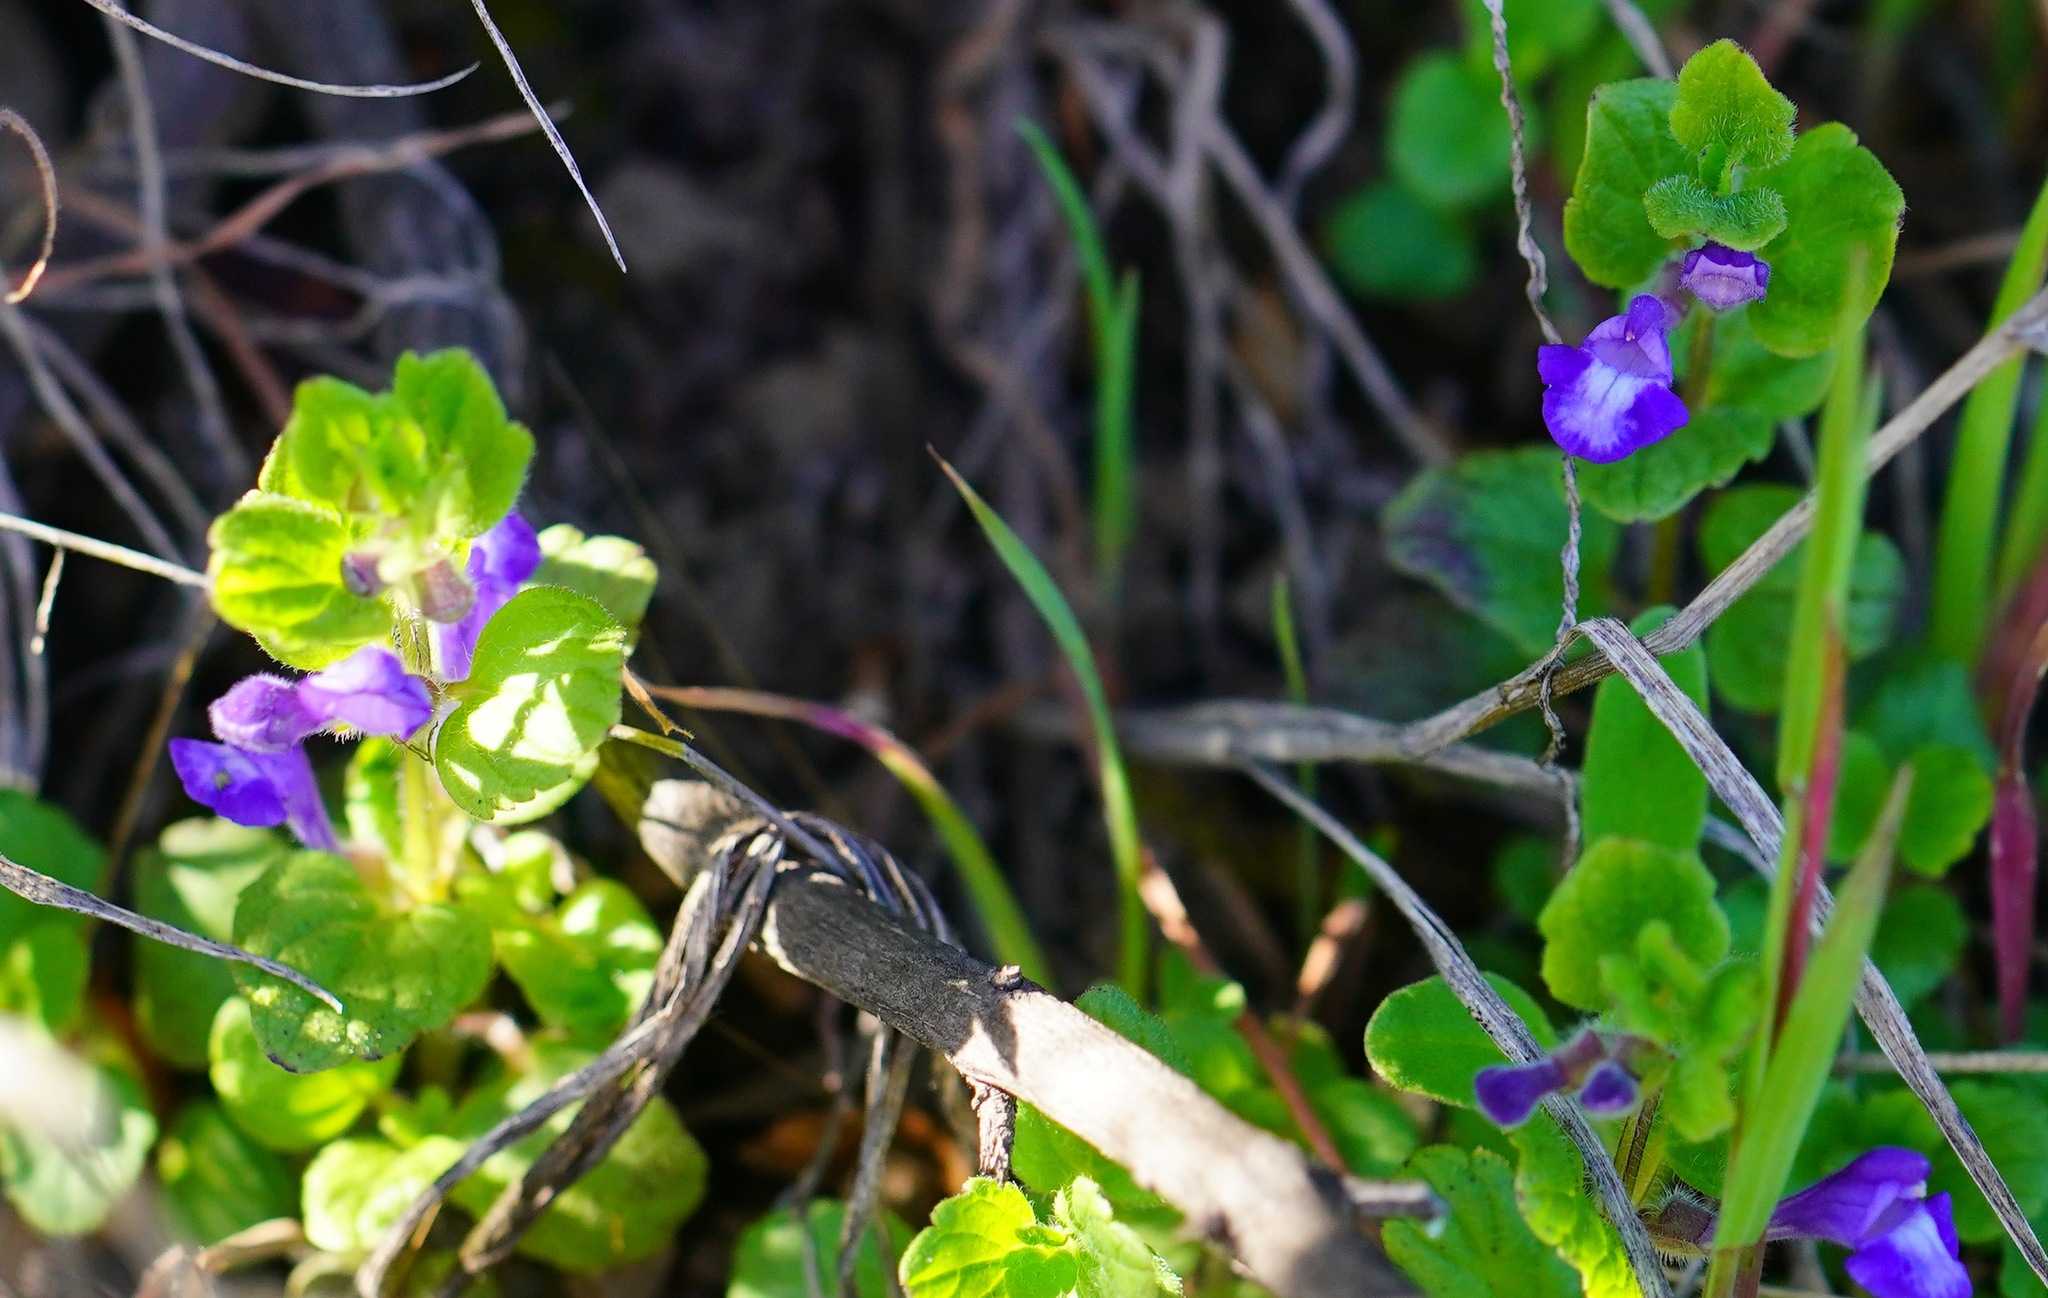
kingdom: Plantae
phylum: Tracheophyta
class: Magnoliopsida
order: Lamiales
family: Lamiaceae
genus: Scutellaria
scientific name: Scutellaria tuberosa
